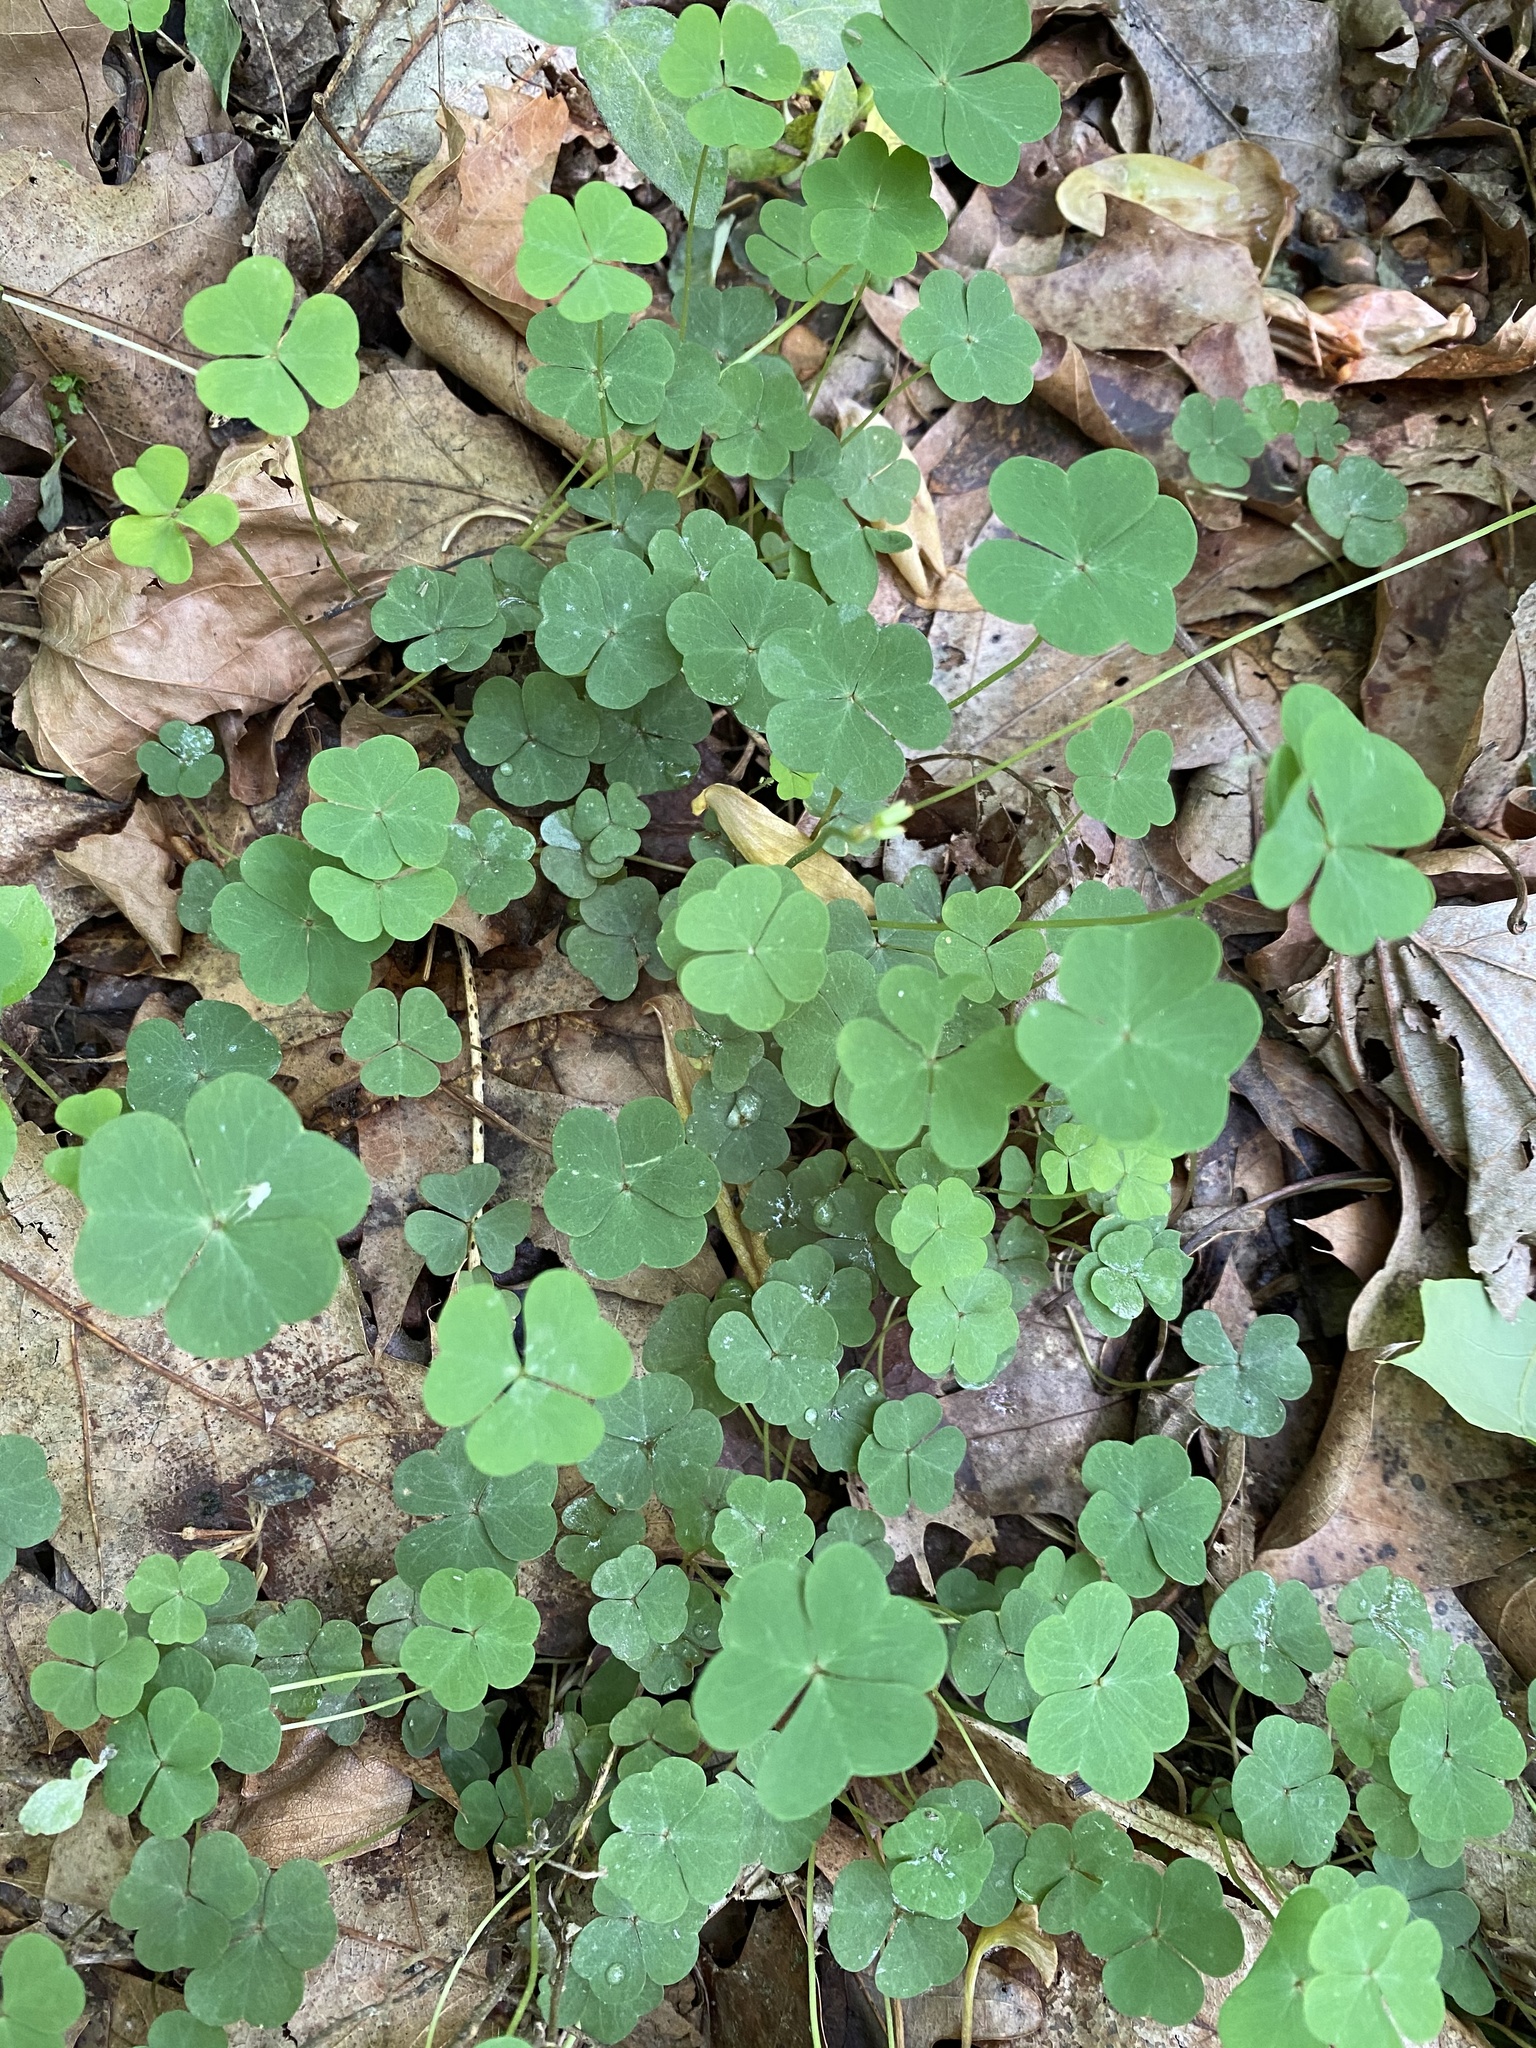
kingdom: Plantae
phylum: Tracheophyta
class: Magnoliopsida
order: Oxalidales
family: Oxalidaceae
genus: Oxalis
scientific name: Oxalis violacea
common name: Violet wood-sorrel
